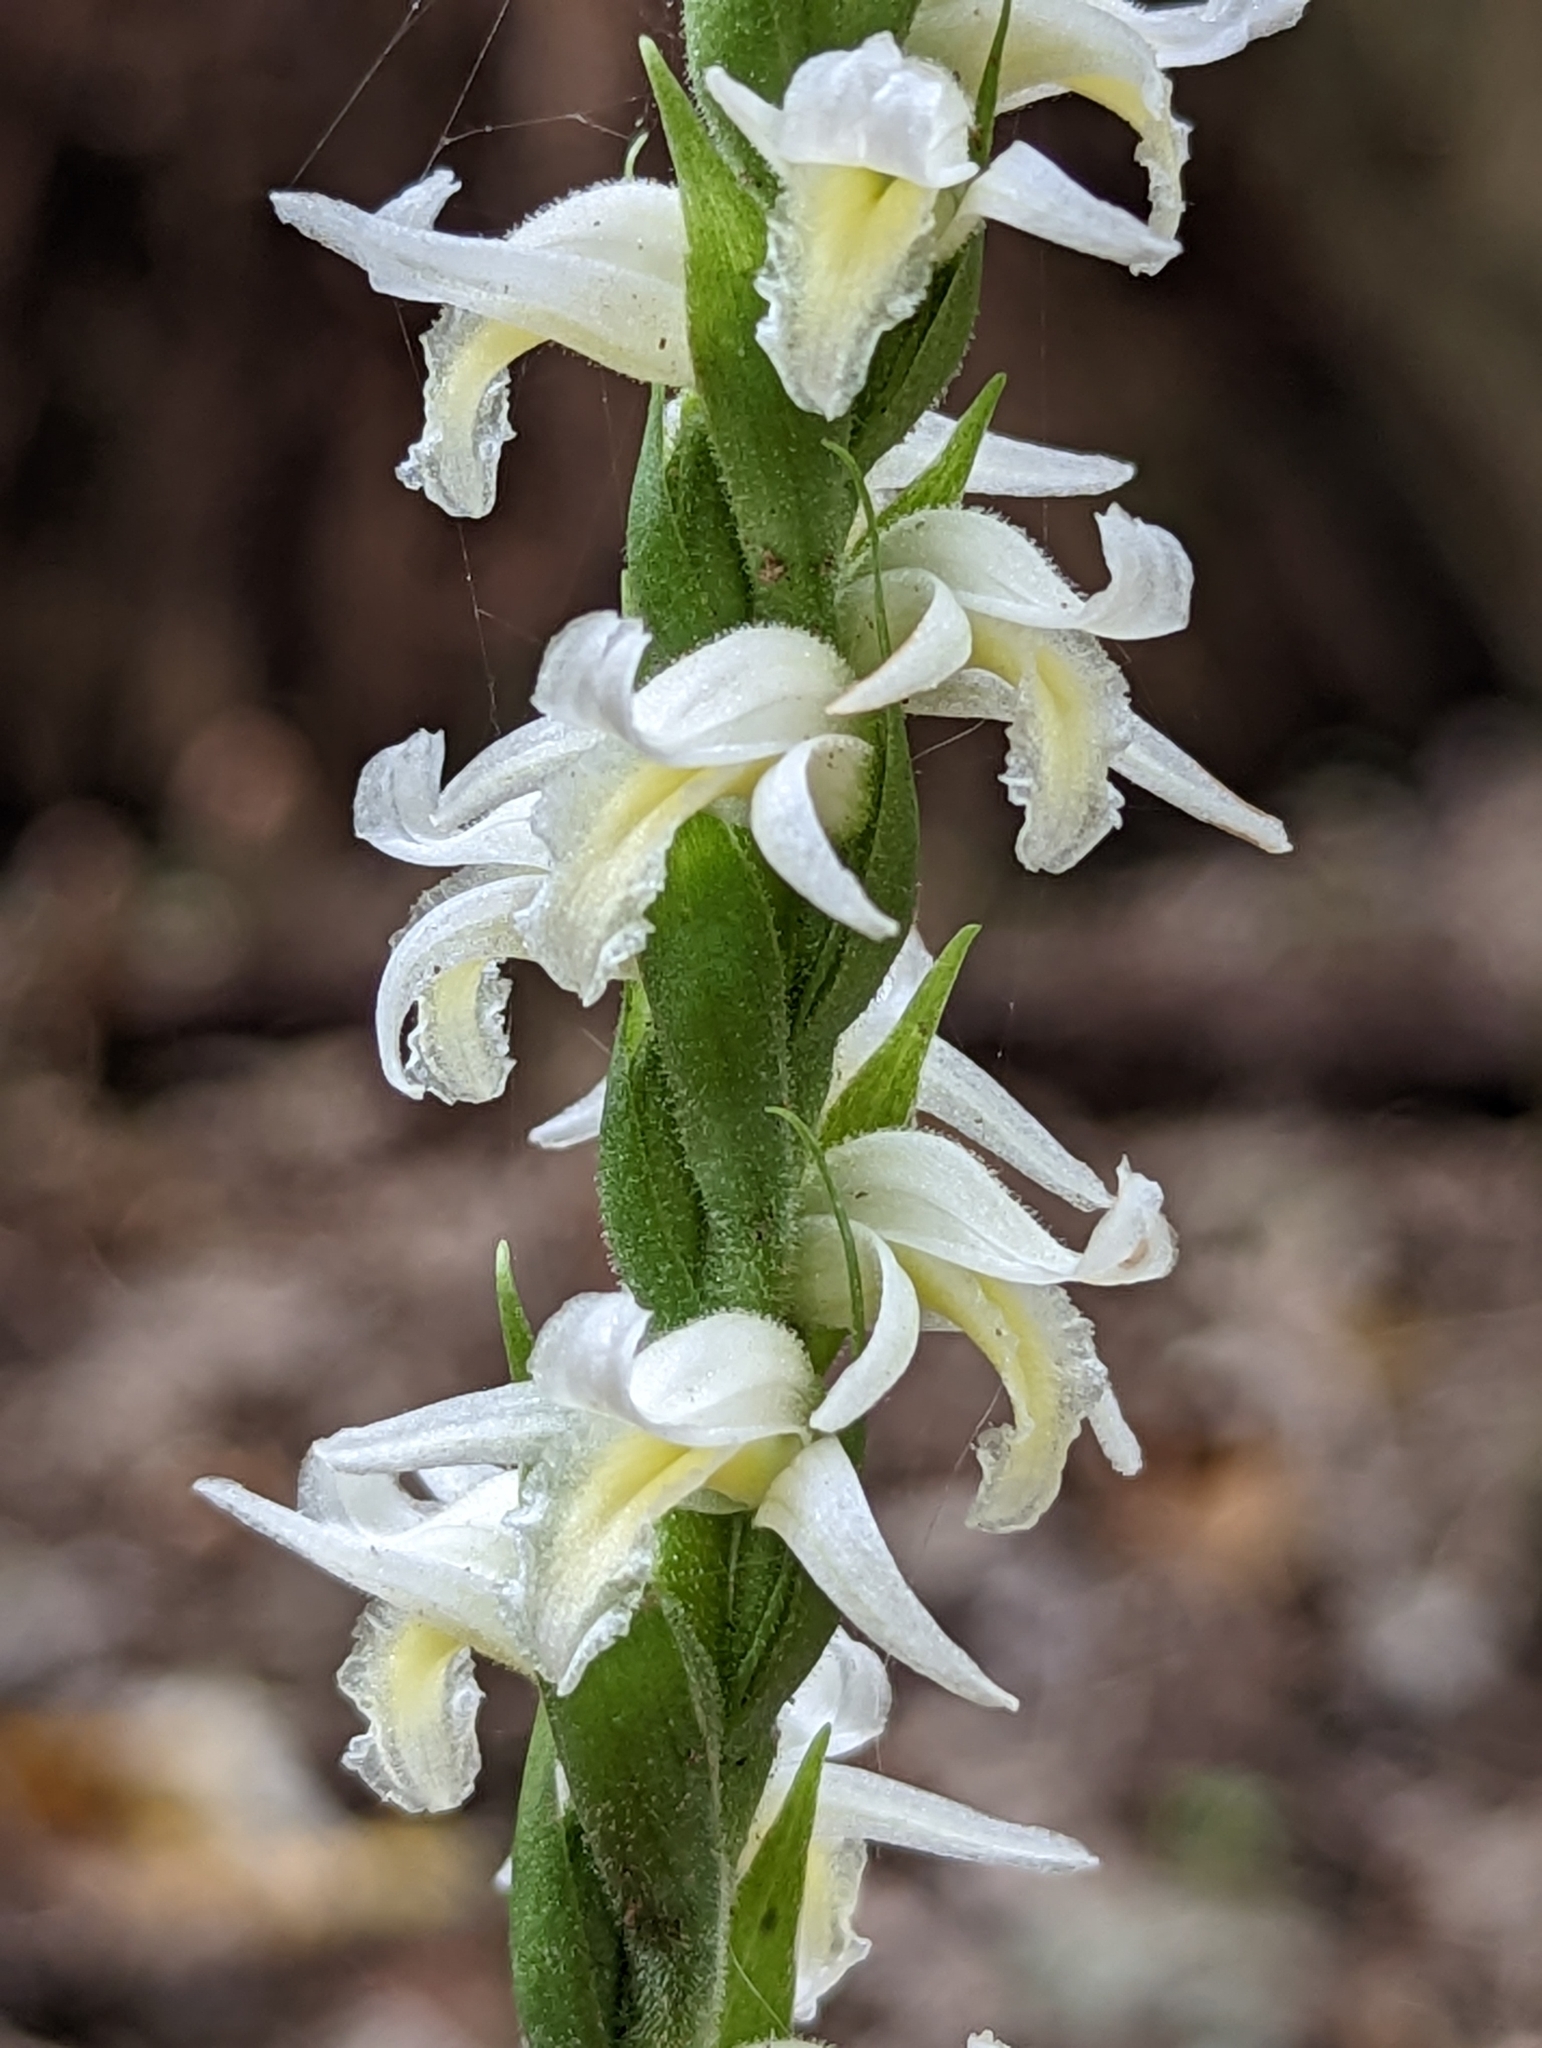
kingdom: Plantae
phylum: Tracheophyta
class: Liliopsida
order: Asparagales
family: Orchidaceae
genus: Spiranthes
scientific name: Spiranthes odorata
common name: Marsh ladies'-tresses
